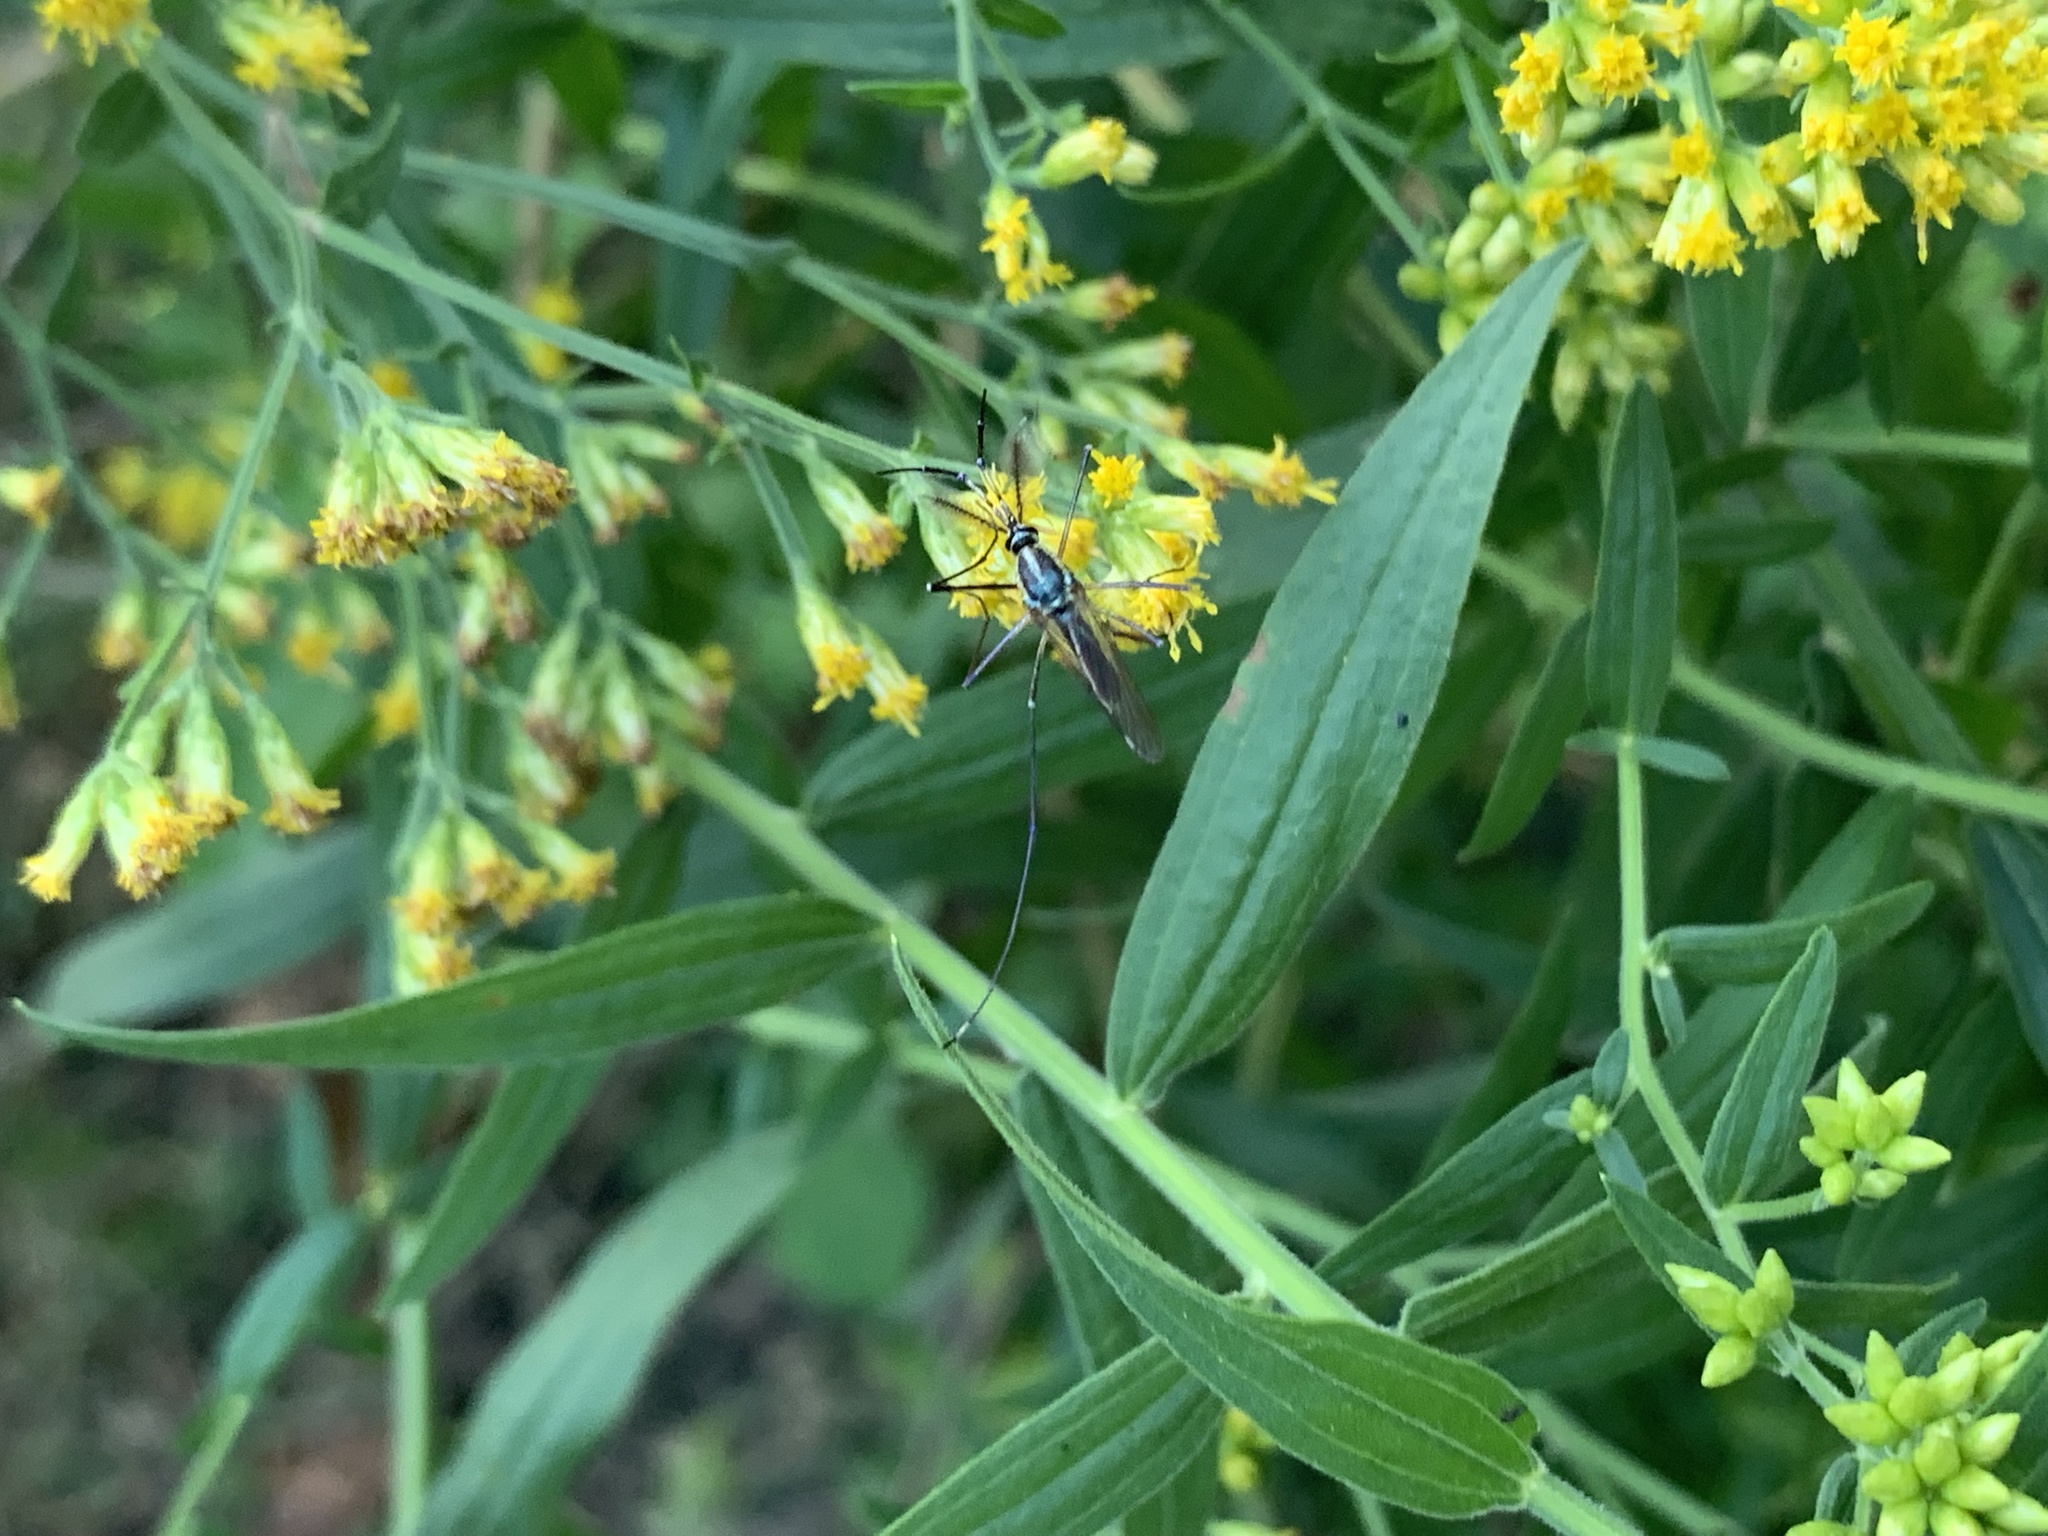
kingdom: Animalia
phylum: Arthropoda
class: Insecta
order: Diptera
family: Culicidae
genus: Toxorhynchites
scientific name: Toxorhynchites rutilus
